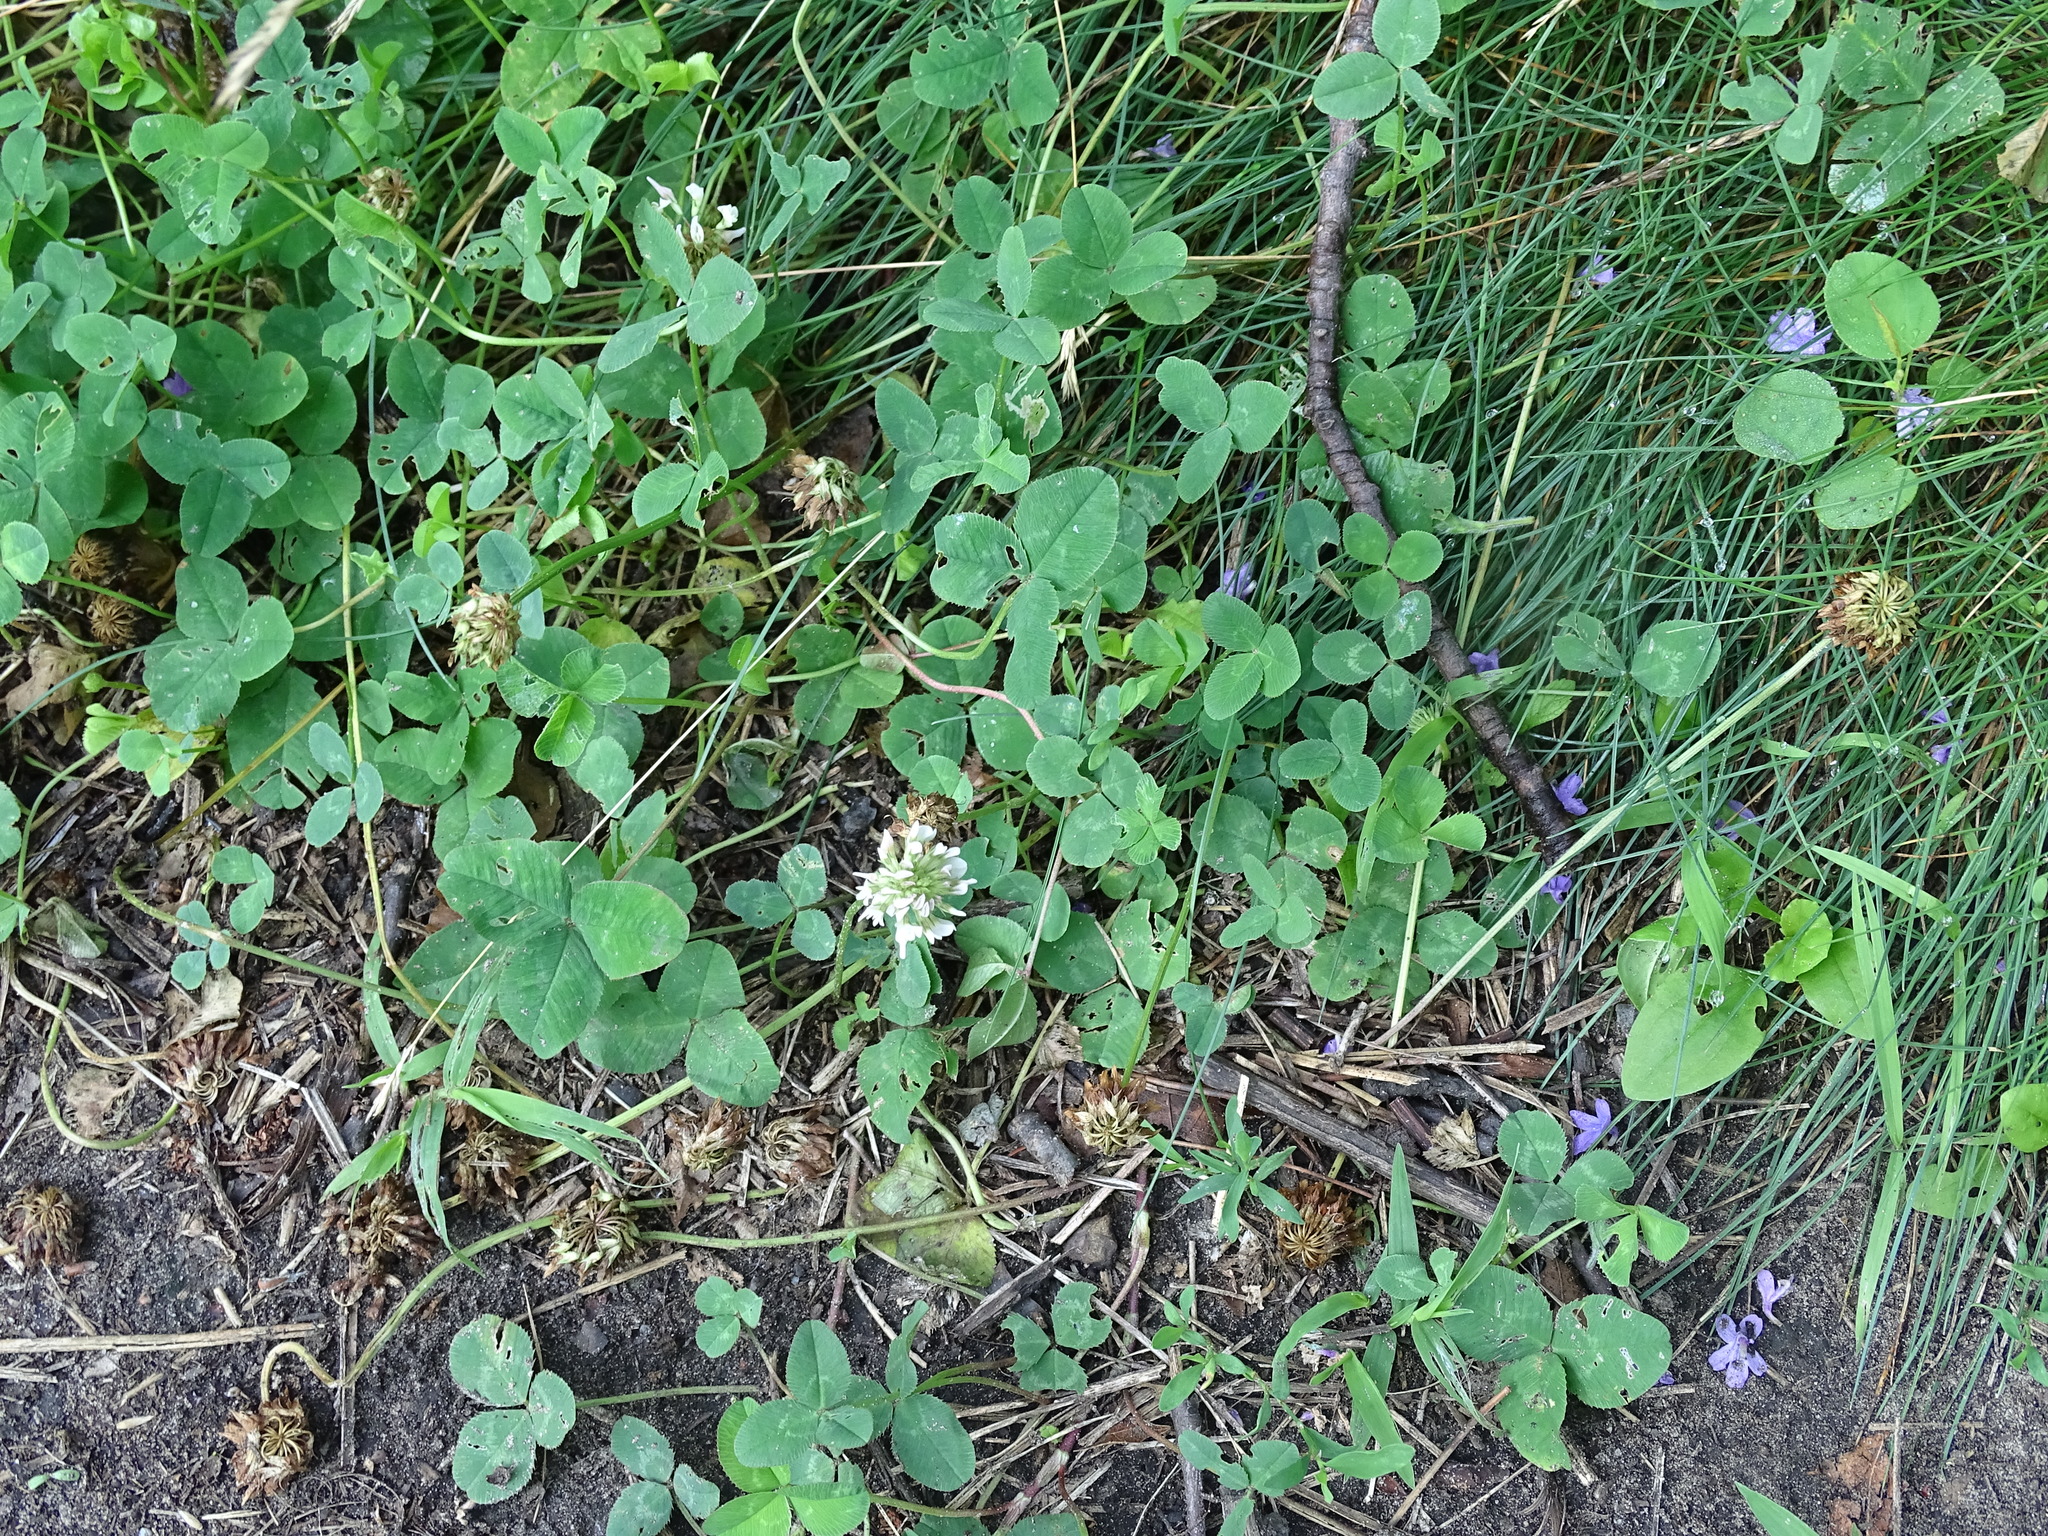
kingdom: Plantae
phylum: Tracheophyta
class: Magnoliopsida
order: Fabales
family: Fabaceae
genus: Trifolium
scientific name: Trifolium repens
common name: White clover
